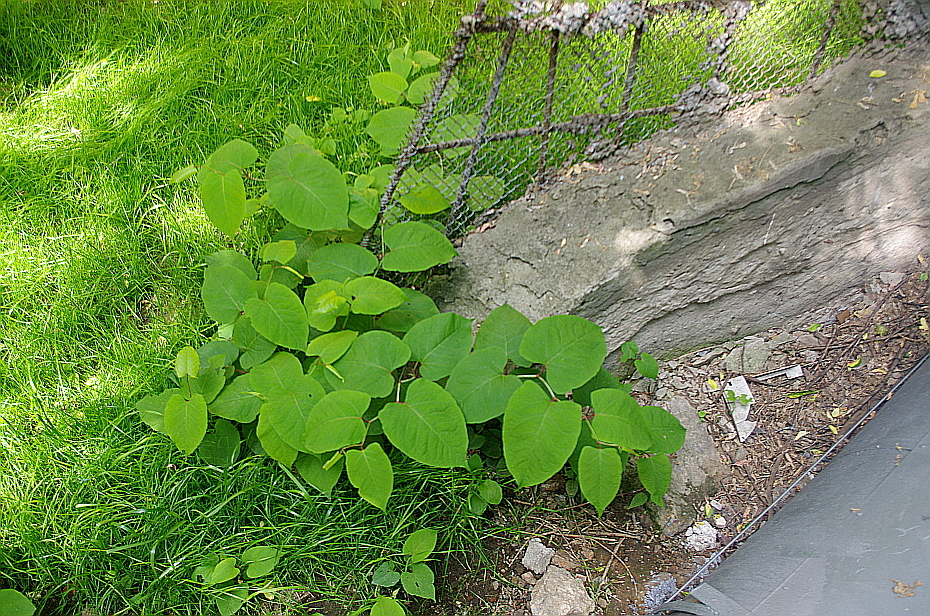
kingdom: Plantae
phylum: Tracheophyta
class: Magnoliopsida
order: Caryophyllales
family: Polygonaceae
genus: Reynoutria
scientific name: Reynoutria bohemica
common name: Bohemian knotweed
